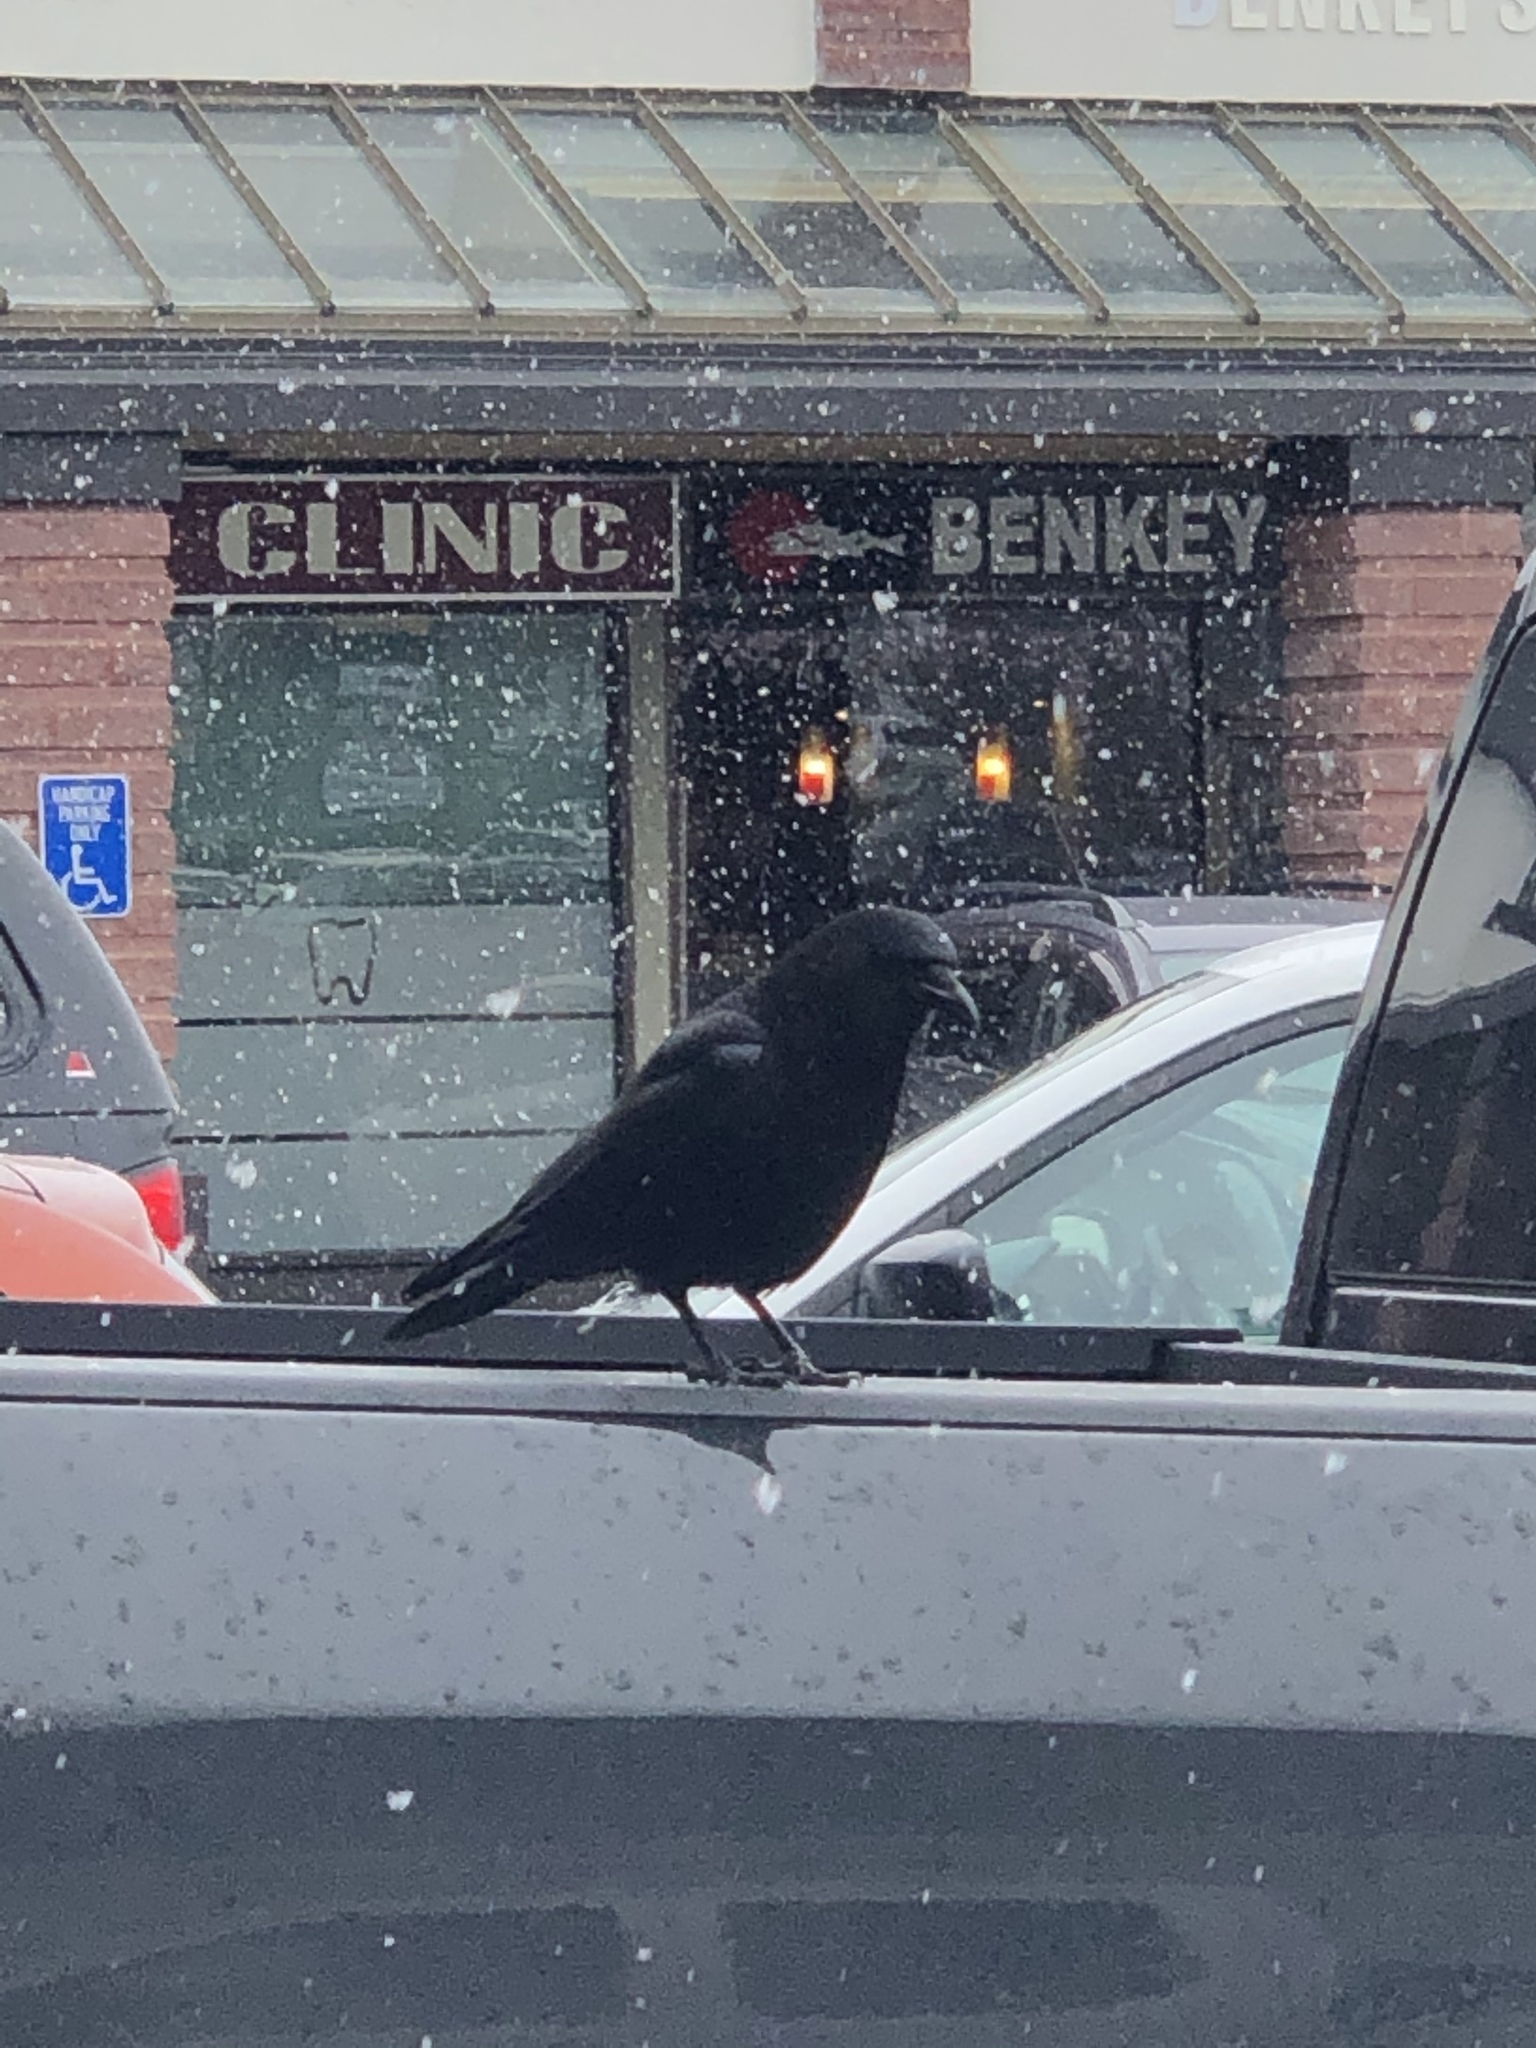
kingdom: Animalia
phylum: Chordata
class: Aves
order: Passeriformes
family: Corvidae
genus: Corvus
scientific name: Corvus brachyrhynchos
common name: American crow
